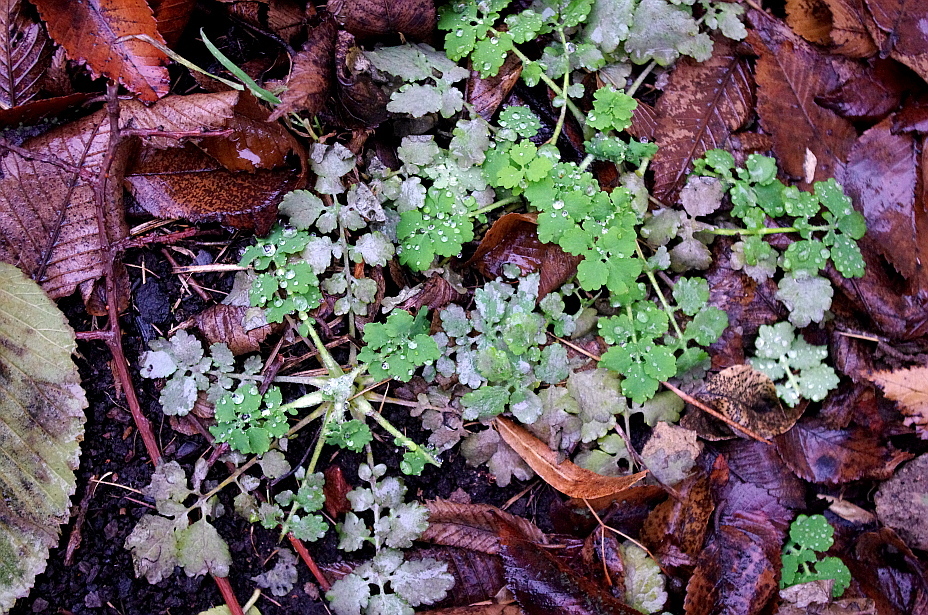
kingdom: Plantae
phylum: Tracheophyta
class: Magnoliopsida
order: Ranunculales
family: Papaveraceae
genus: Chelidonium
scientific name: Chelidonium majus
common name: Greater celandine
